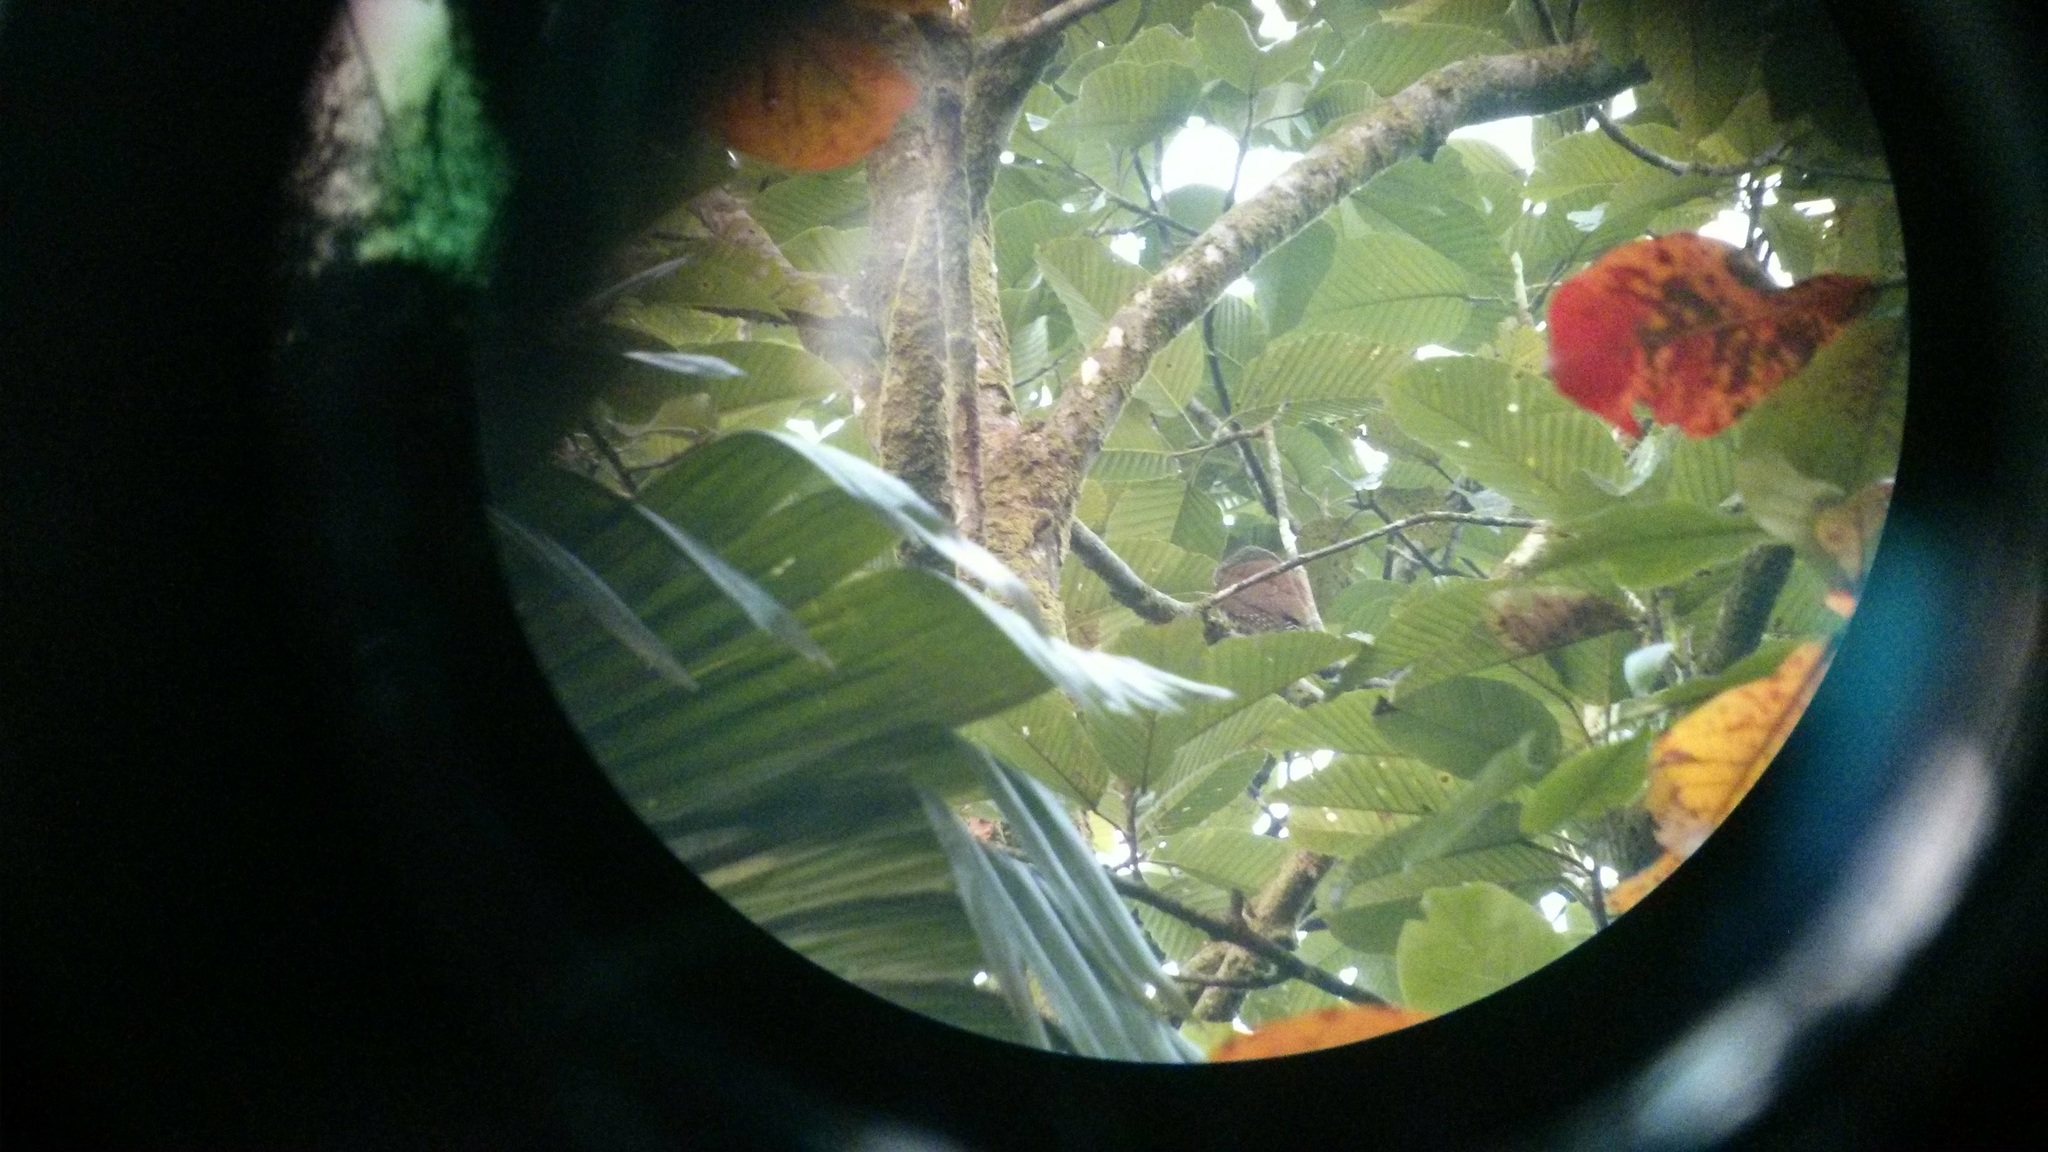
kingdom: Animalia
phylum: Chordata
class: Aves
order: Strigiformes
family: Strigidae
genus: Glaucidium
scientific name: Glaucidium castanotum
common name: Chestnut-backed owlet
